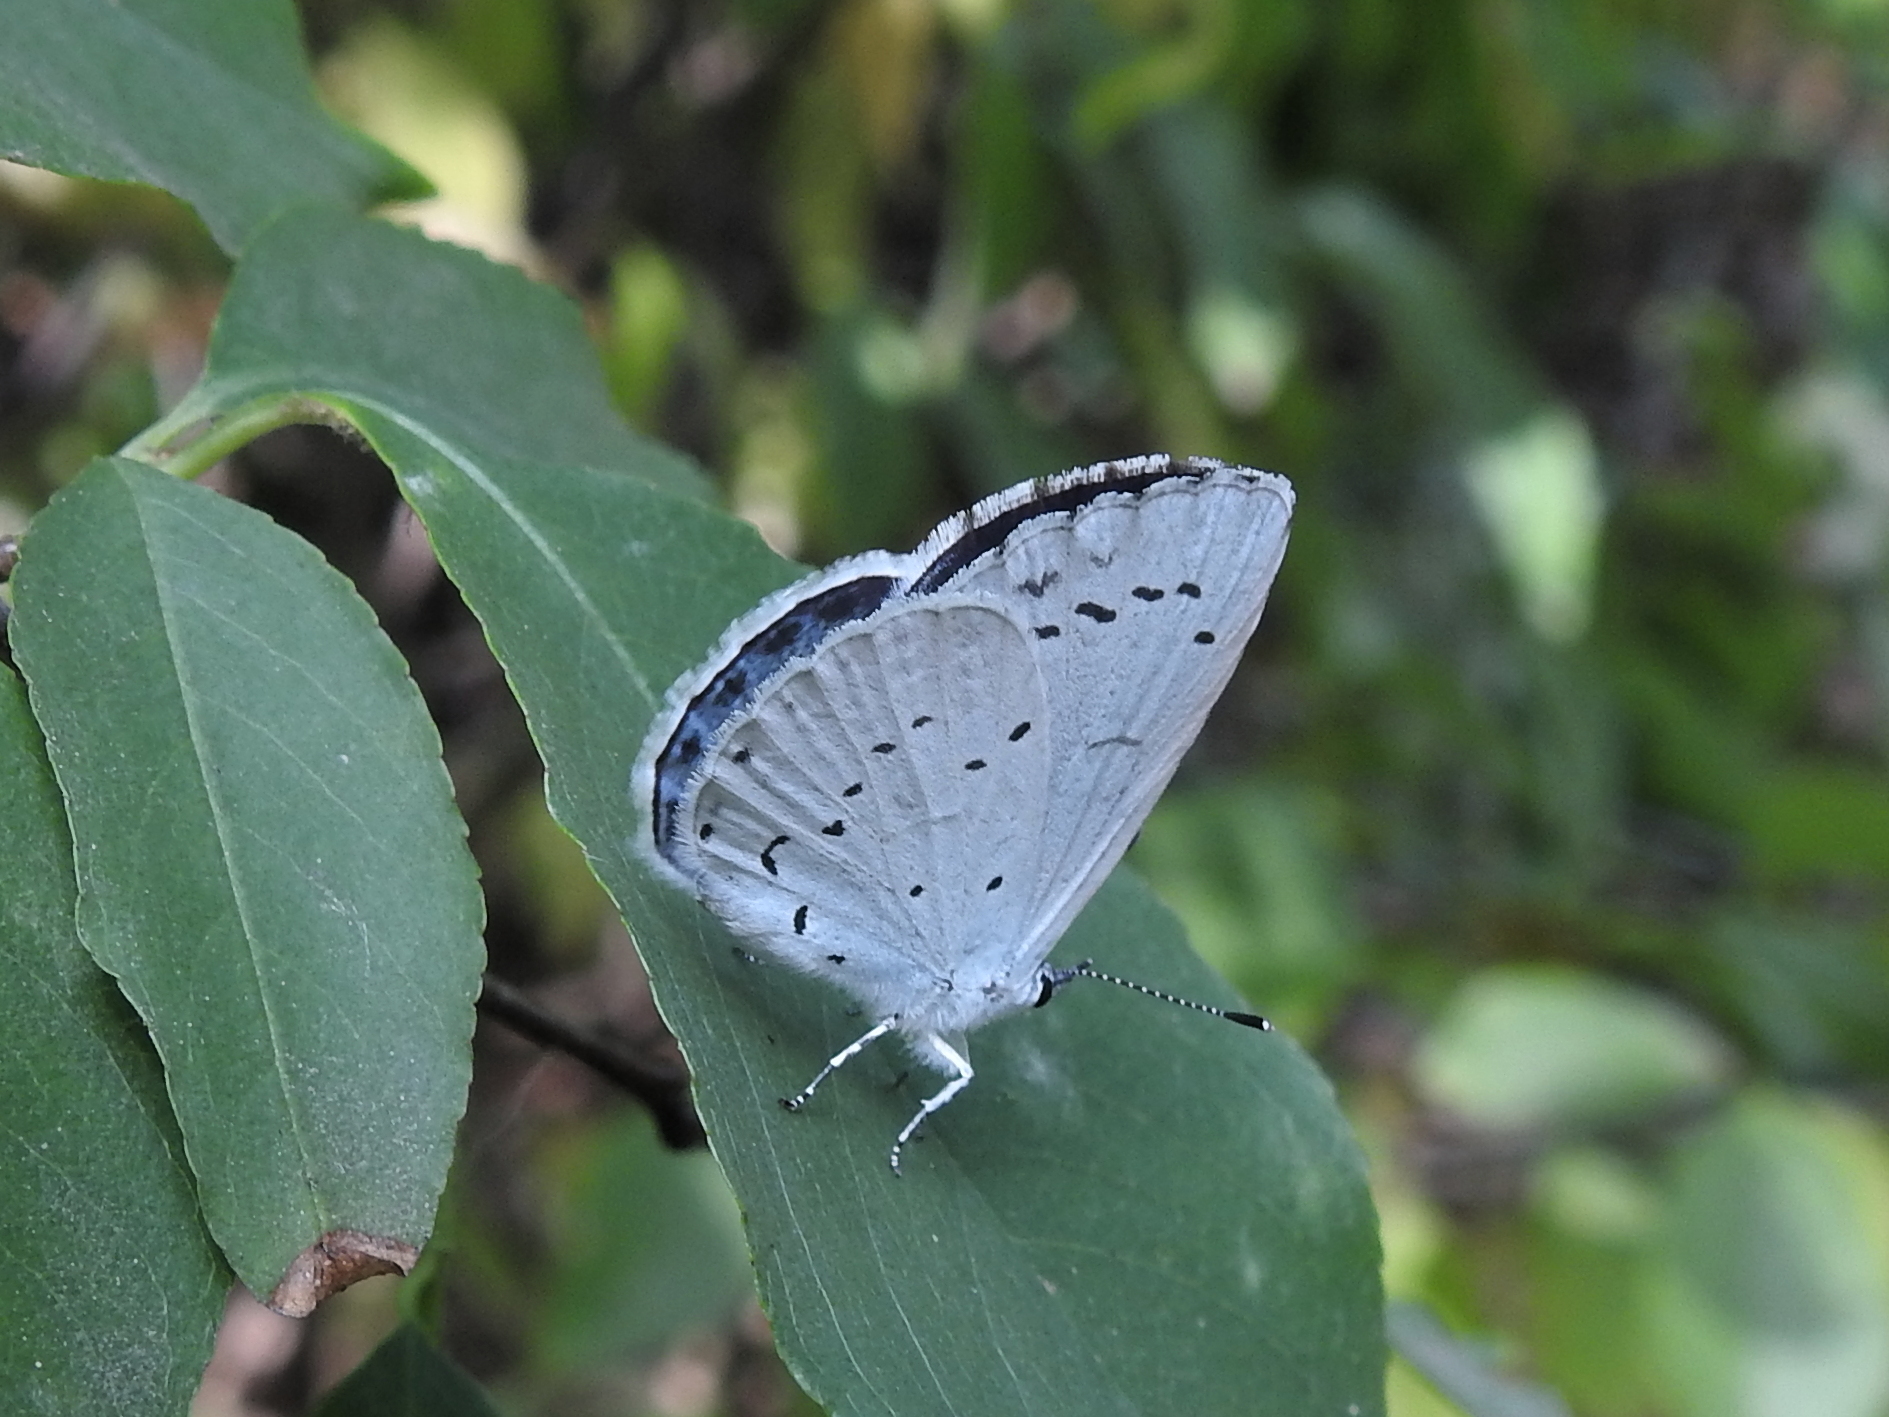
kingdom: Animalia
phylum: Arthropoda
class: Insecta
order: Lepidoptera
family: Lycaenidae
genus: Celastrina
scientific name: Celastrina argiolus
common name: Holly blue
